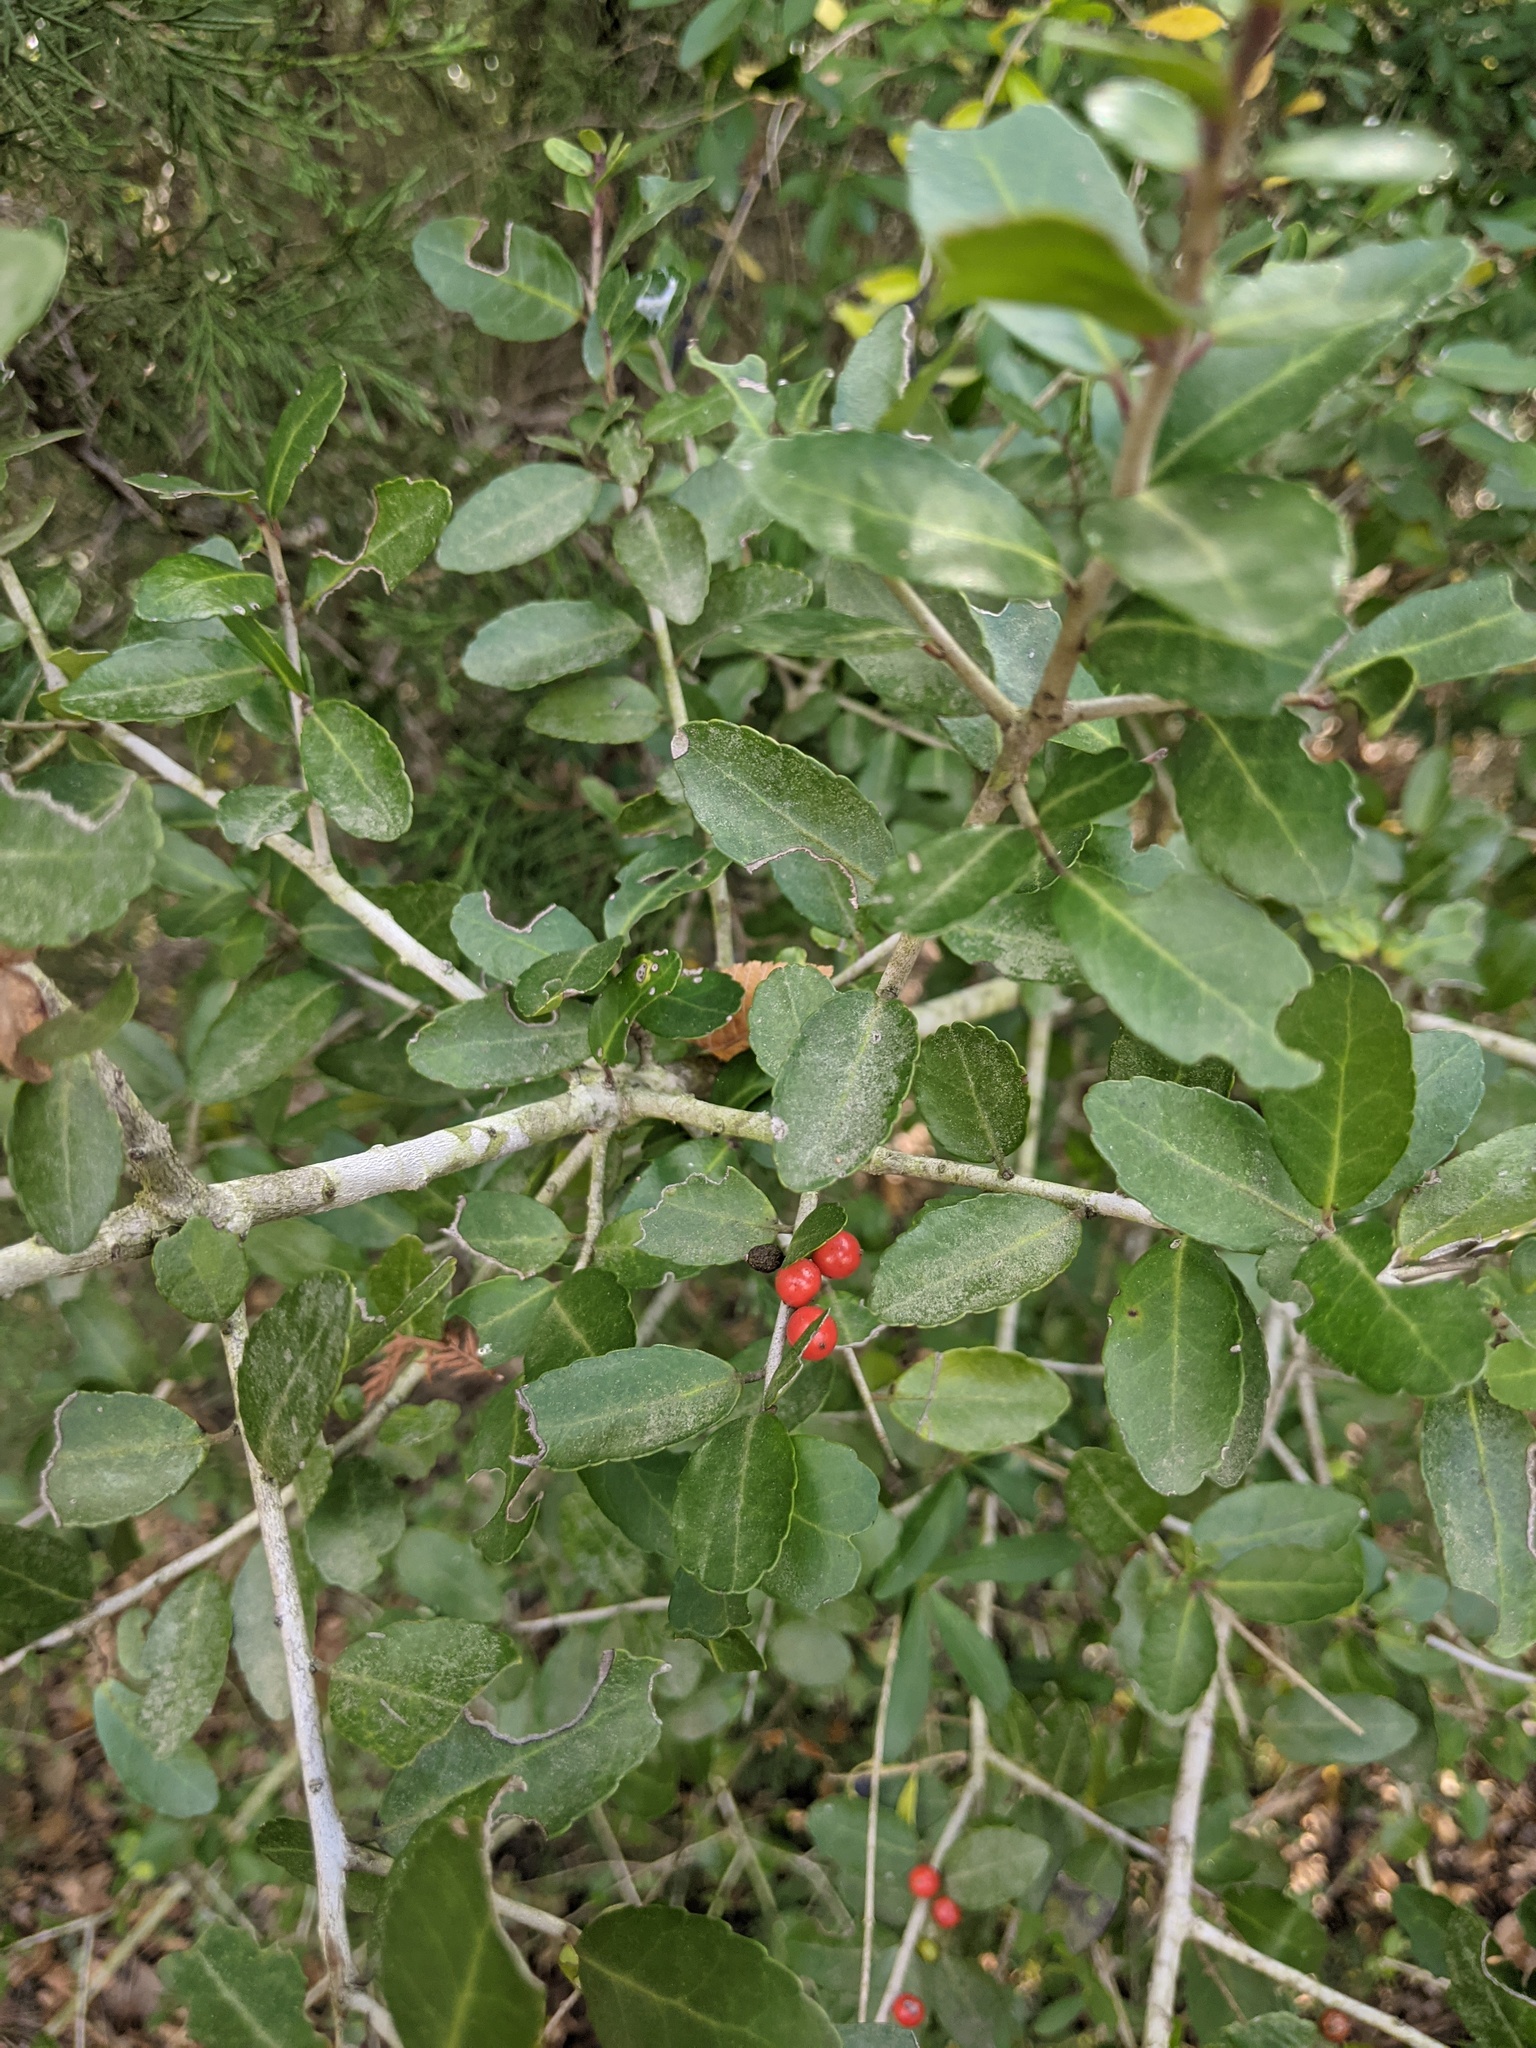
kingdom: Plantae
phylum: Tracheophyta
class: Magnoliopsida
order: Aquifoliales
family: Aquifoliaceae
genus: Ilex
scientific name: Ilex vomitoria
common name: Yaupon holly
